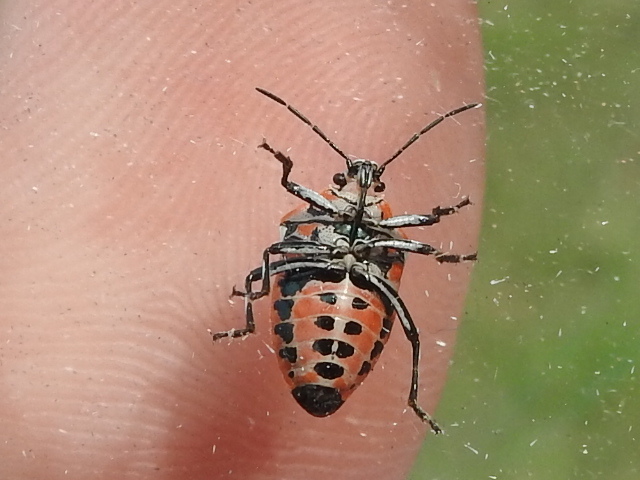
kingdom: Animalia
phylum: Arthropoda
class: Insecta
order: Hemiptera
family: Pentatomidae
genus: Perillus
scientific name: Perillus strigipes
